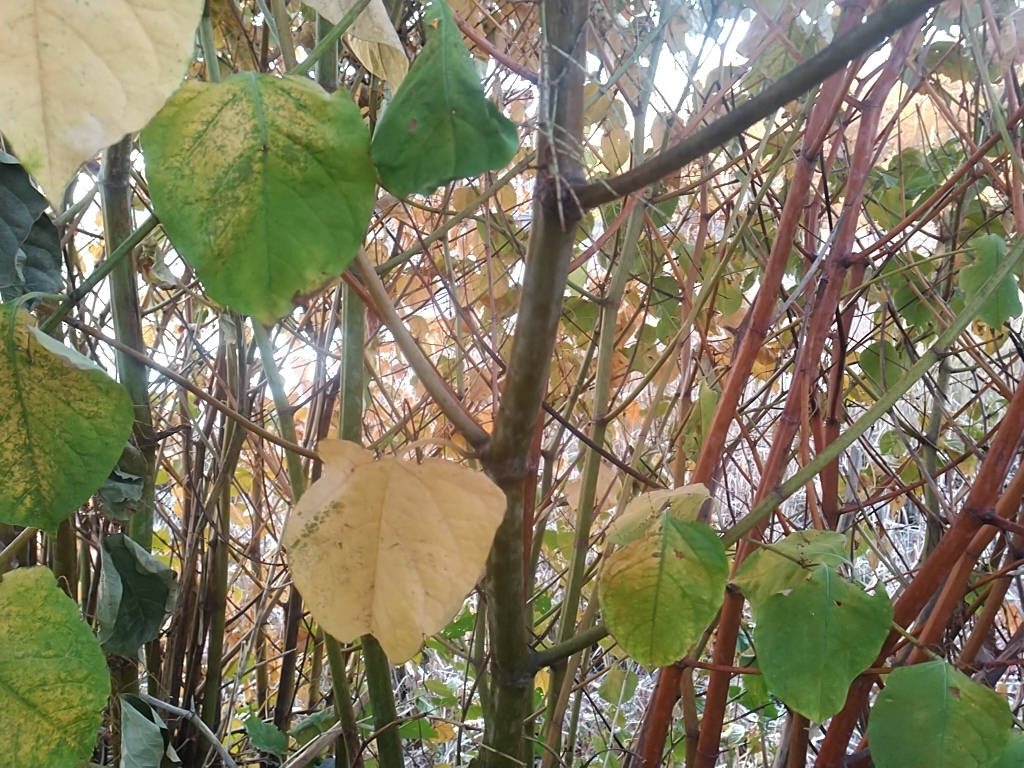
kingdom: Plantae
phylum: Tracheophyta
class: Magnoliopsida
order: Caryophyllales
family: Polygonaceae
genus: Reynoutria
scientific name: Reynoutria japonica
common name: Japanese knotweed
